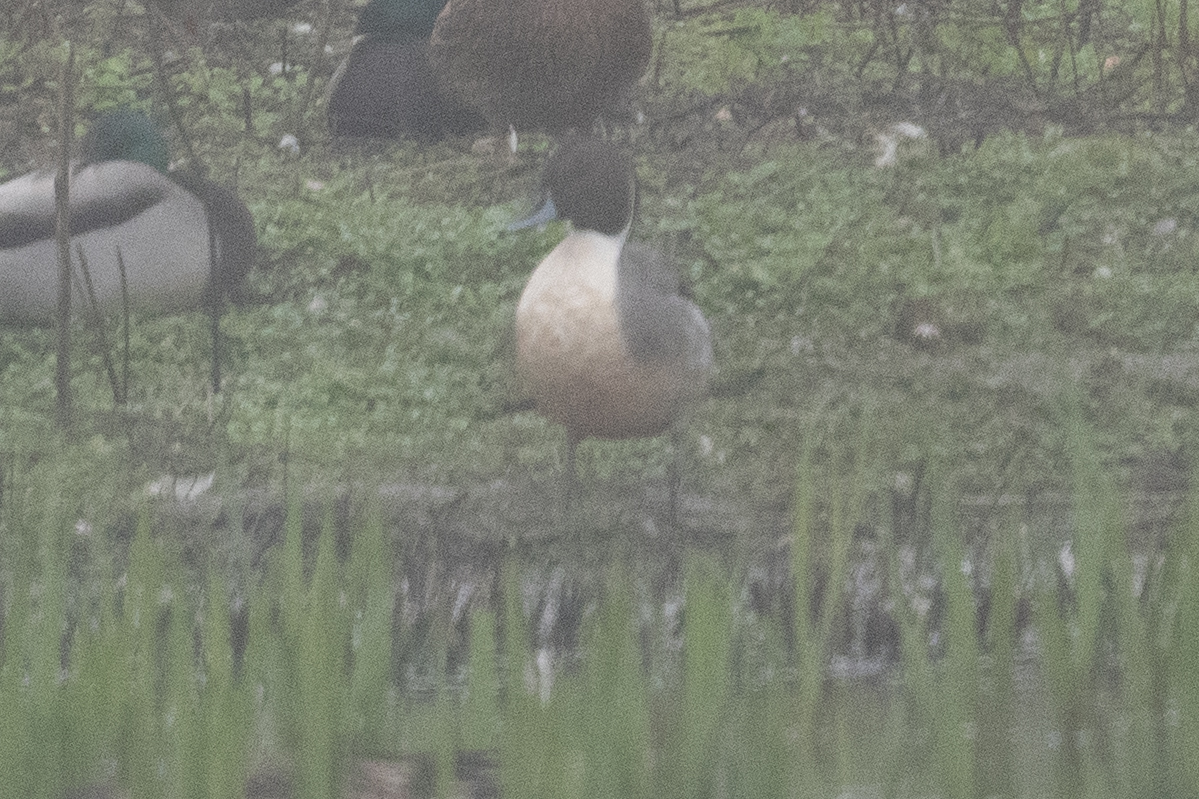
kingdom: Animalia
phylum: Chordata
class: Aves
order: Anseriformes
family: Anatidae
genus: Anas
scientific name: Anas acuta
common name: Northern pintail
